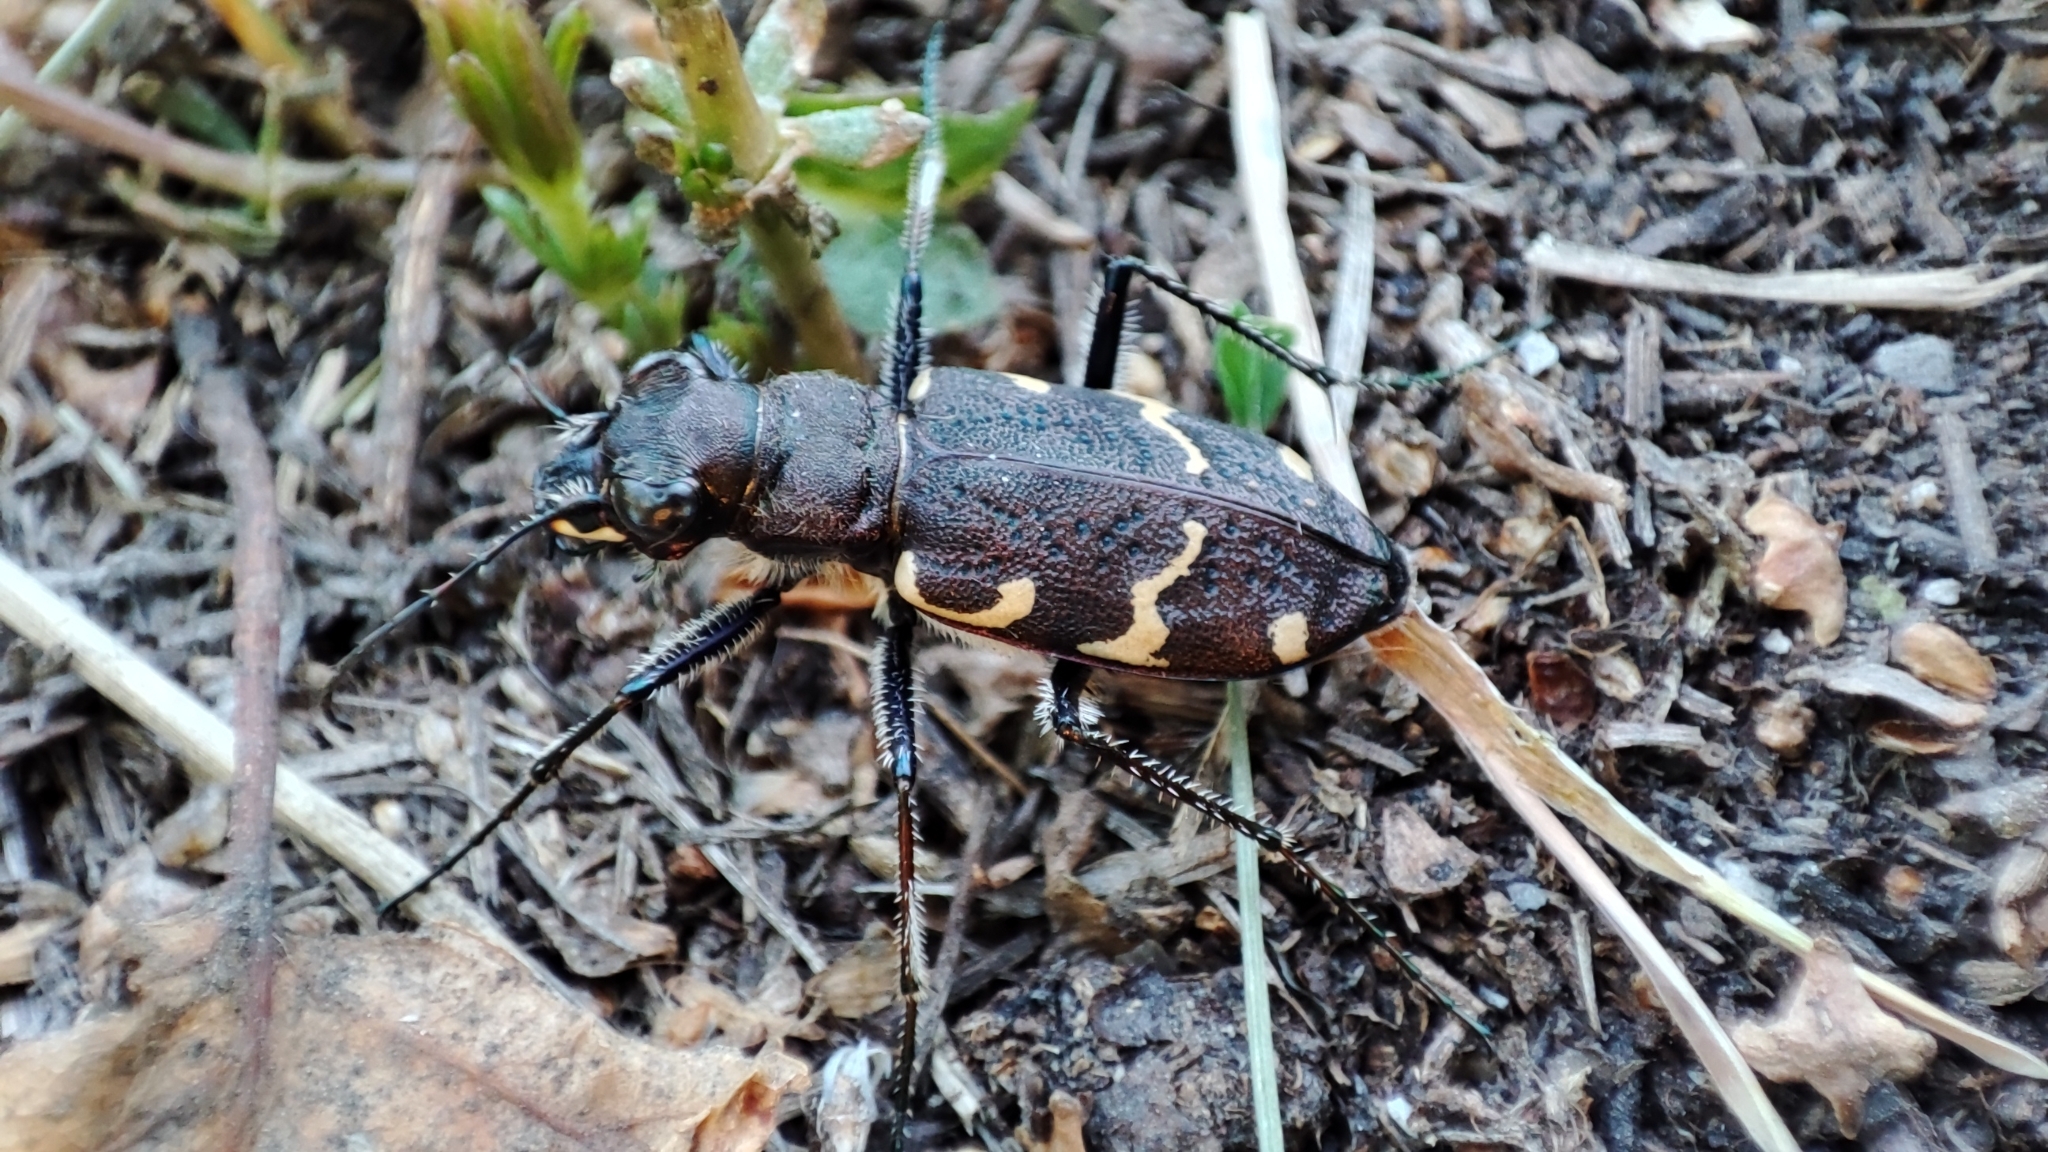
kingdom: Animalia
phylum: Arthropoda
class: Insecta
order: Coleoptera
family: Carabidae
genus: Cicindela
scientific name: Cicindela sylvatica
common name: Heath tiger beetle
